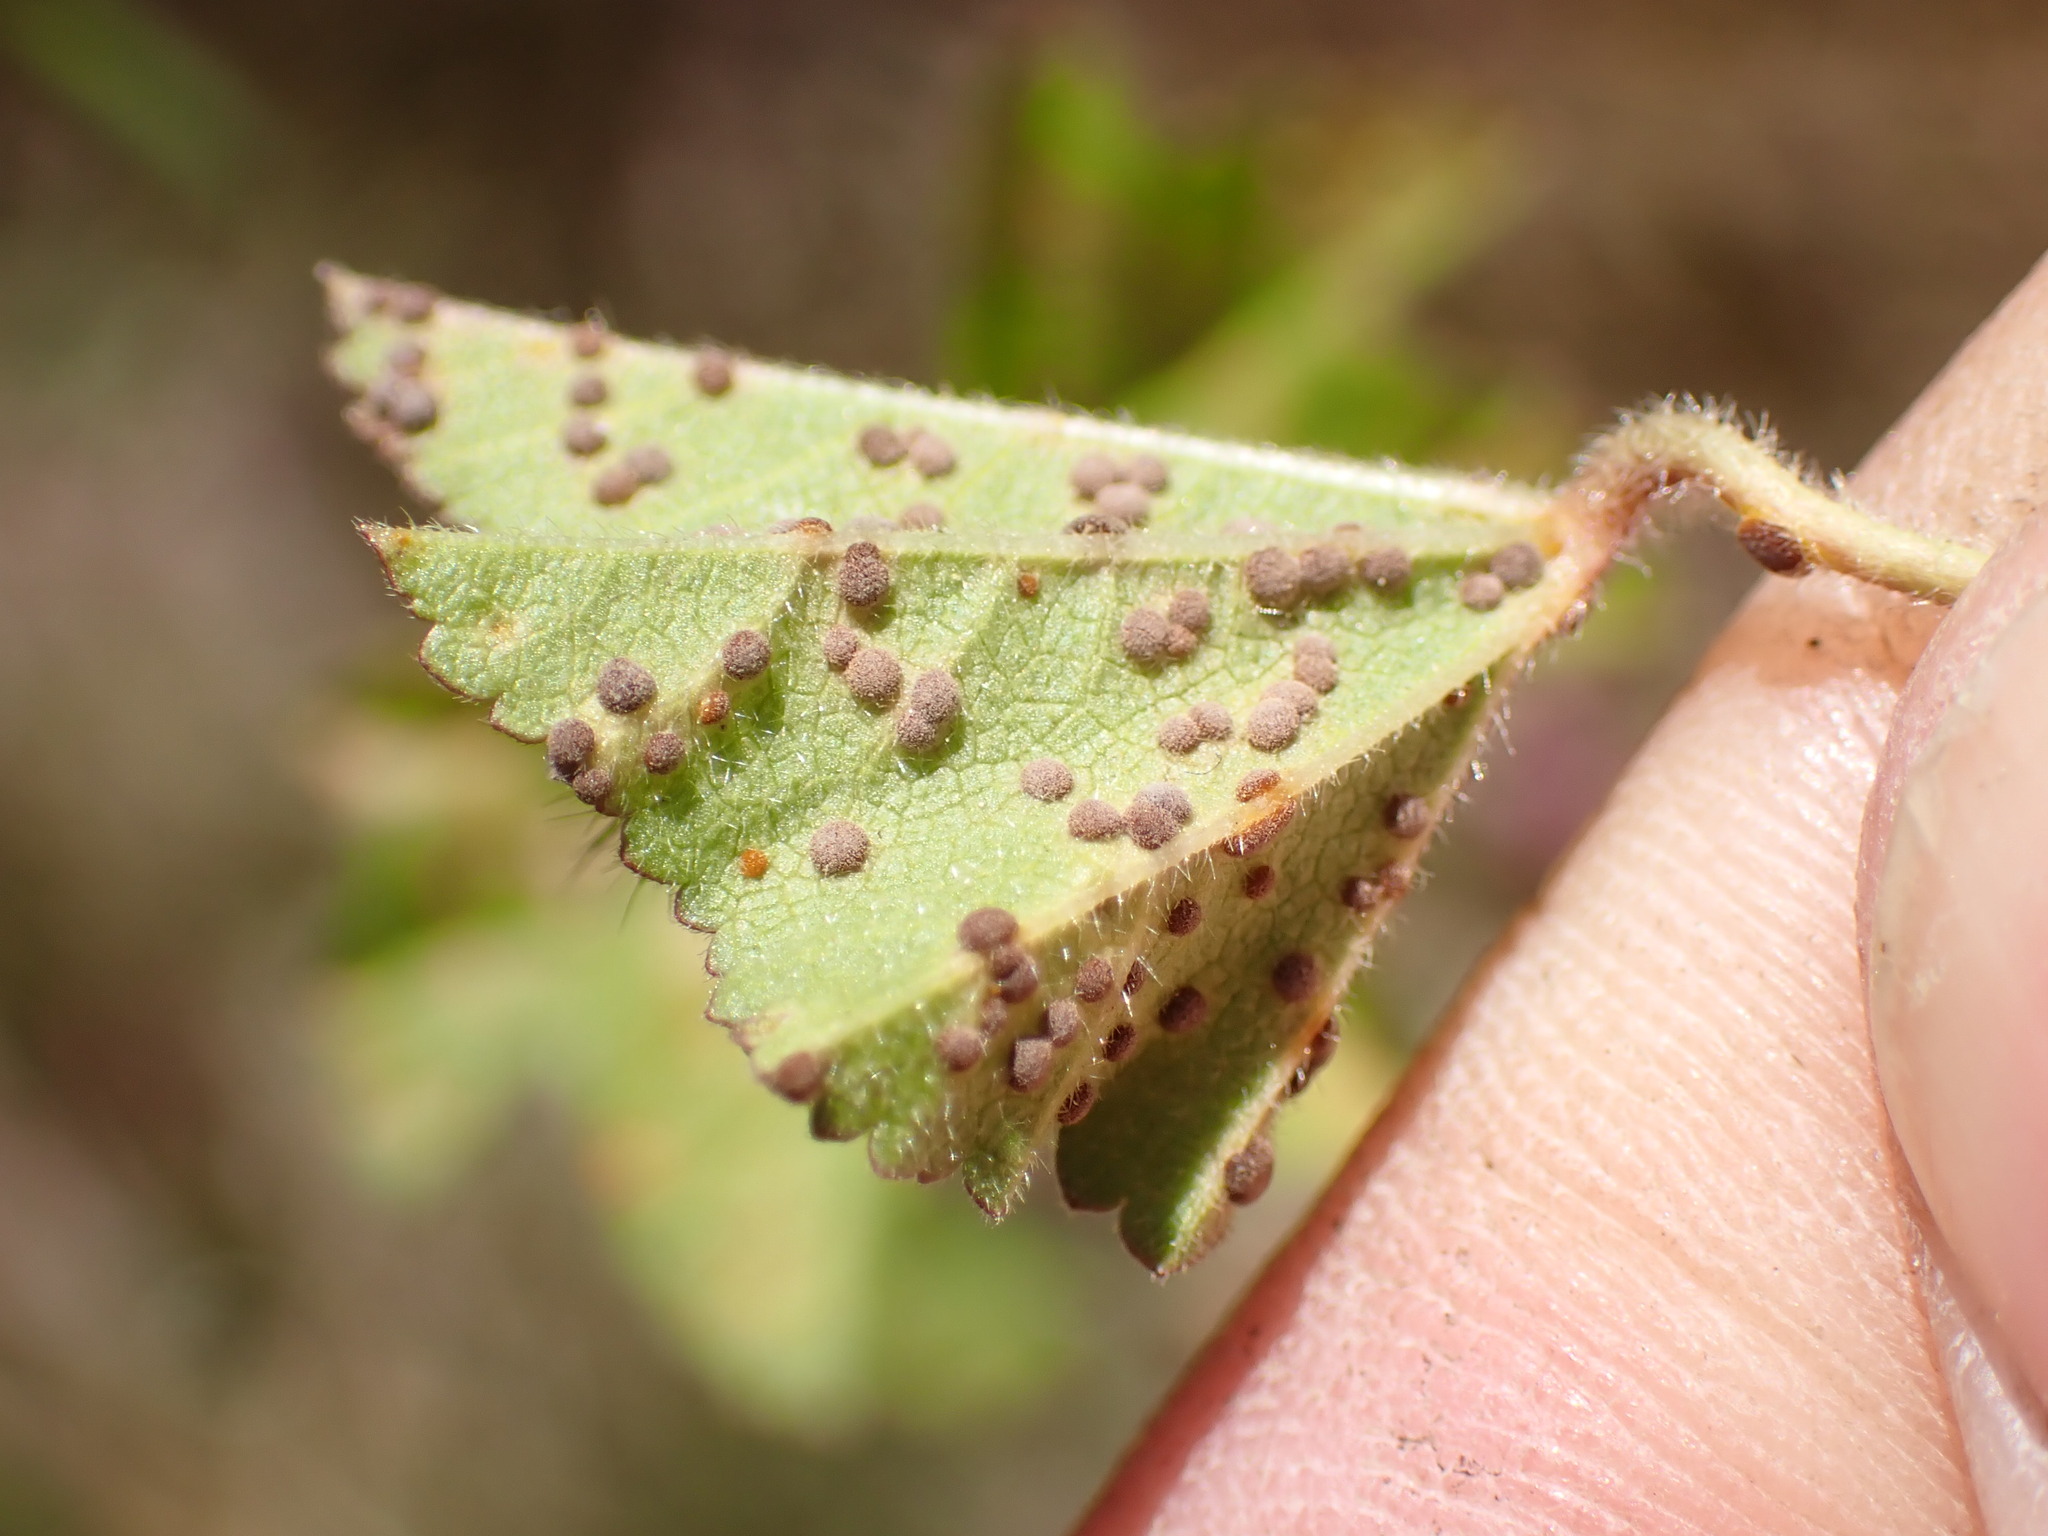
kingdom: Fungi
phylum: Basidiomycota
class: Pucciniomycetes
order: Pucciniales
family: Pucciniaceae
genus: Puccinia
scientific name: Puccinia malvacearum
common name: Hollyhock rust
